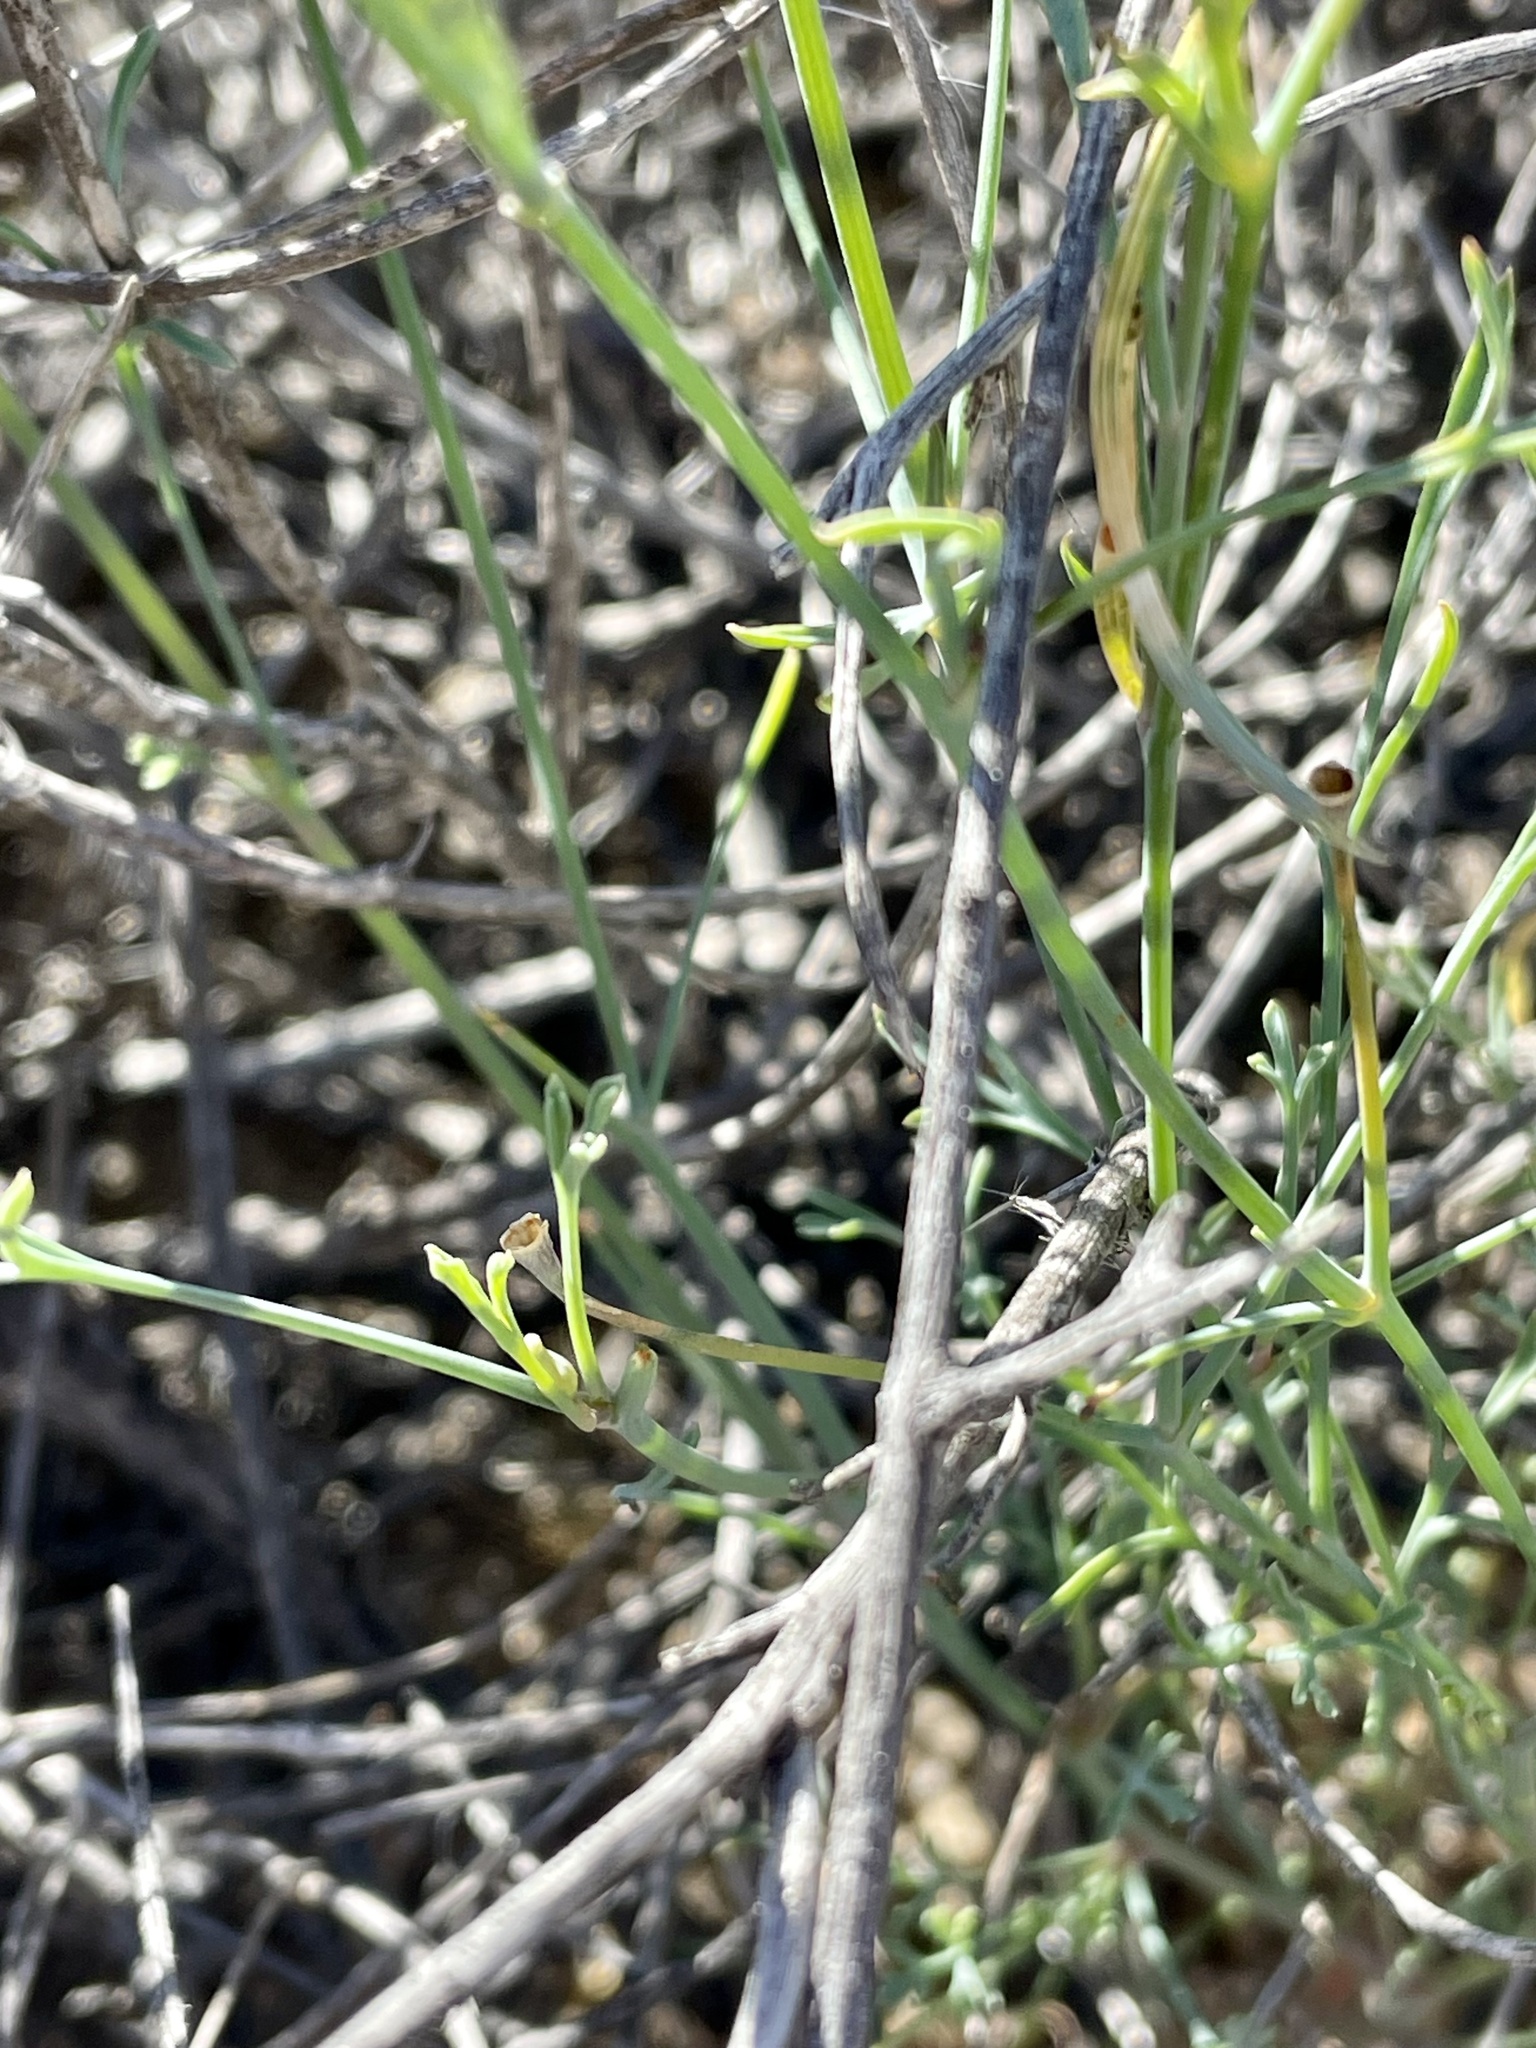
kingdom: Plantae
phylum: Tracheophyta
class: Magnoliopsida
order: Ranunculales
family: Papaveraceae
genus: Eschscholzia
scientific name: Eschscholzia papastillii
